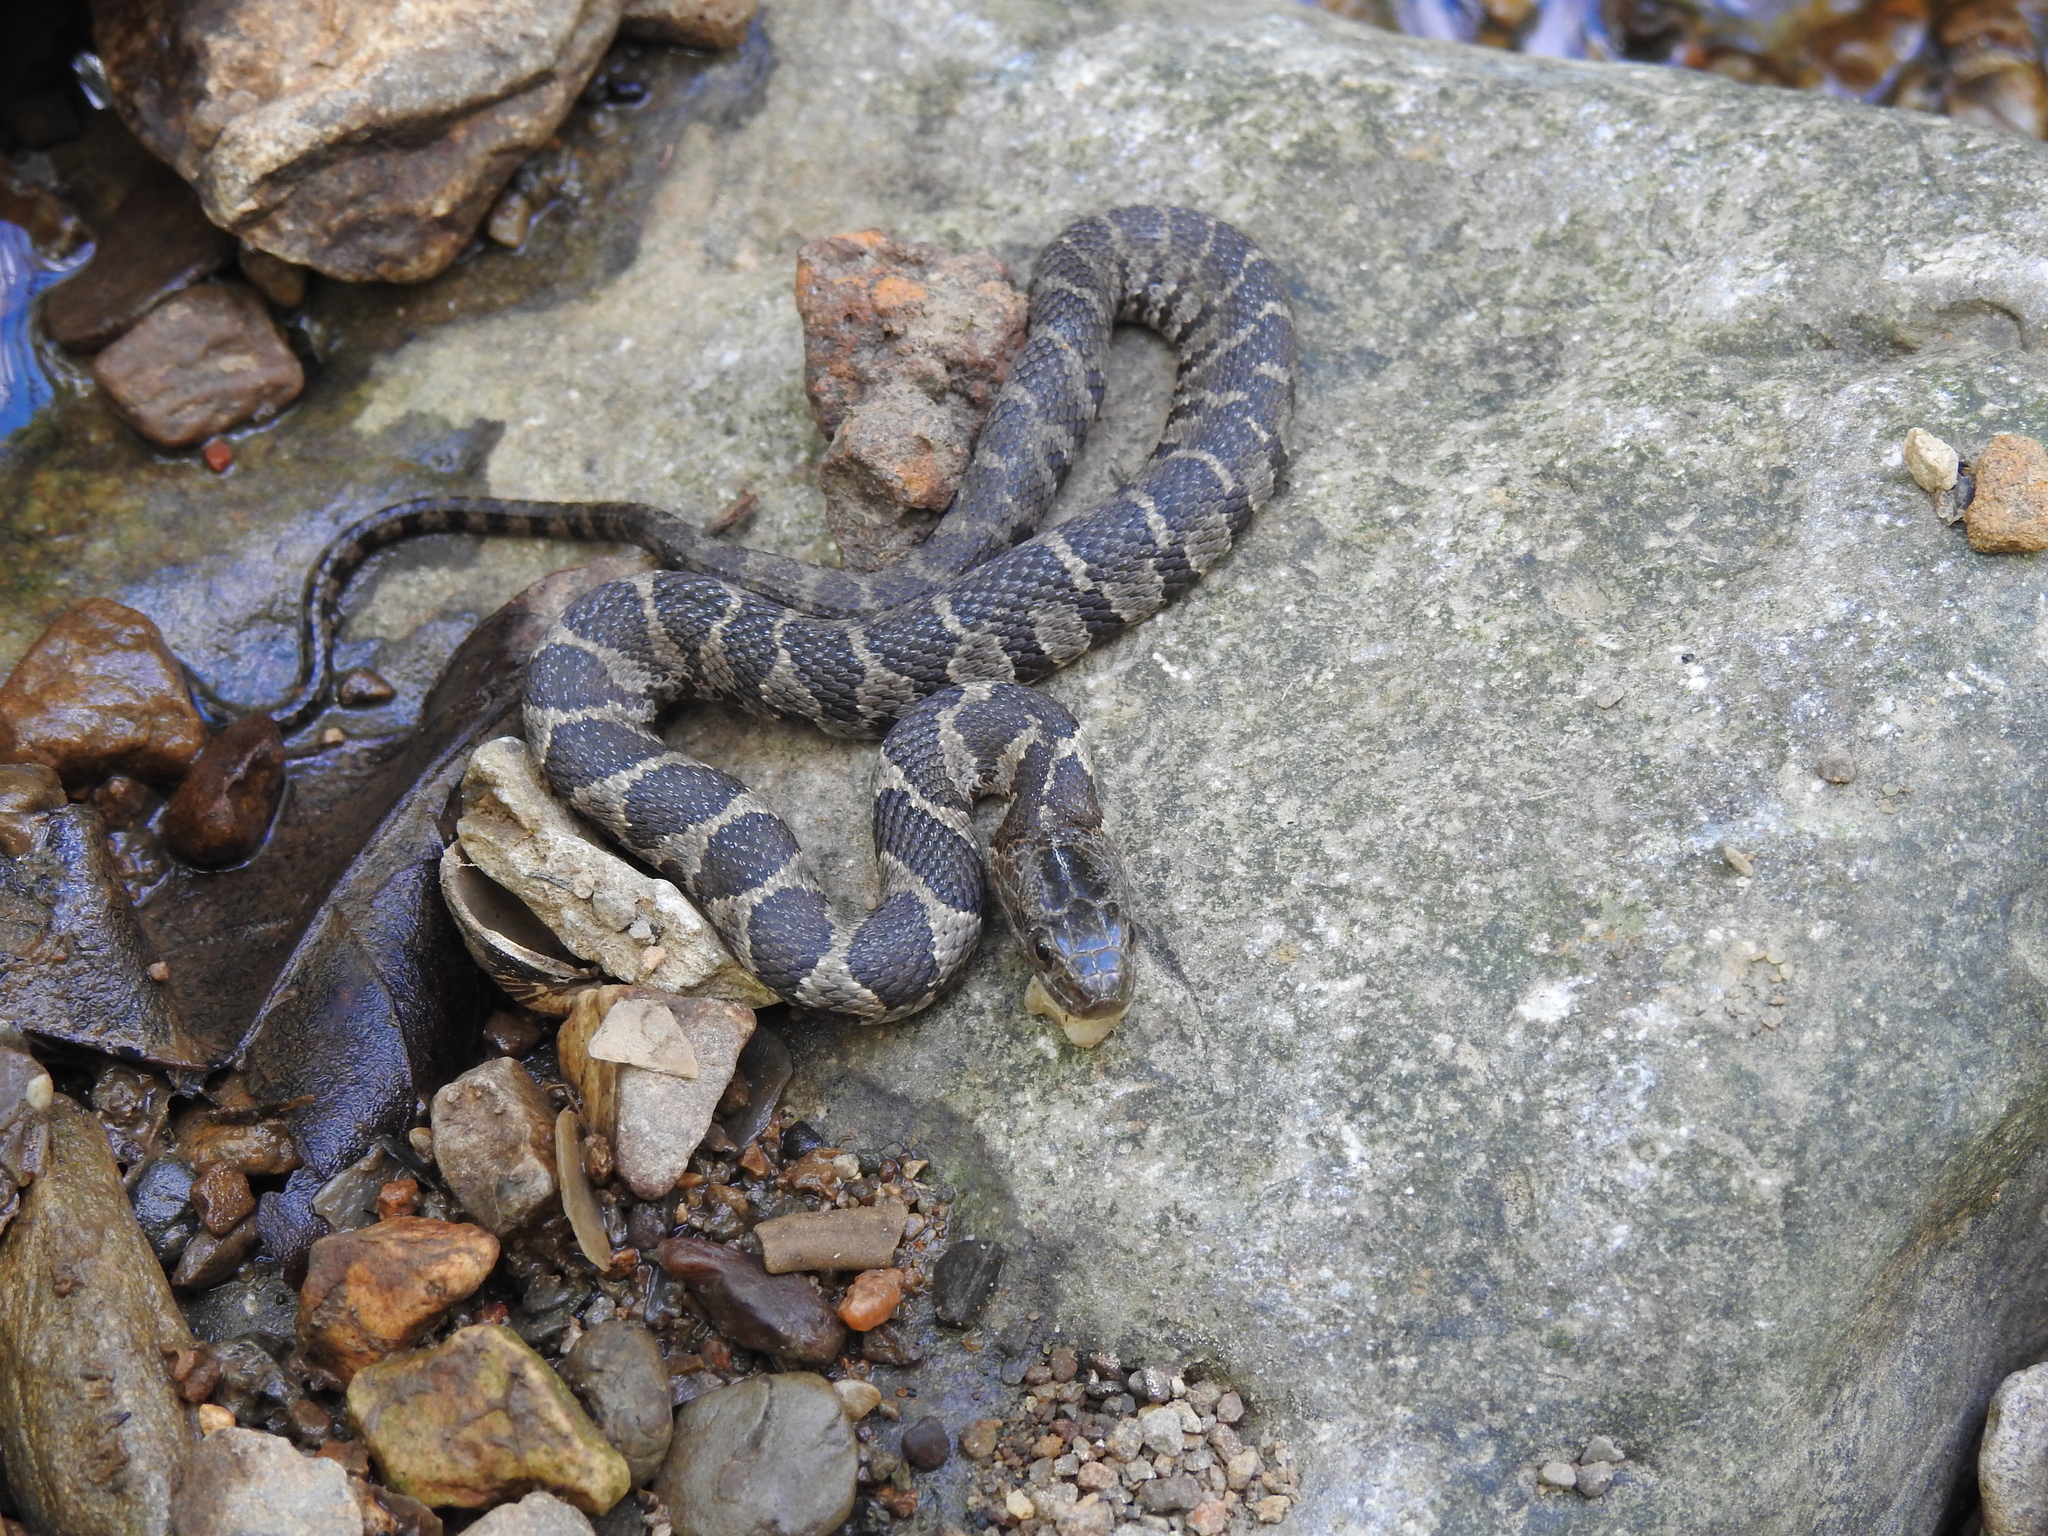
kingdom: Animalia
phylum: Chordata
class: Squamata
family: Colubridae
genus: Nerodia
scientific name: Nerodia sipedon
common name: Northern water snake
